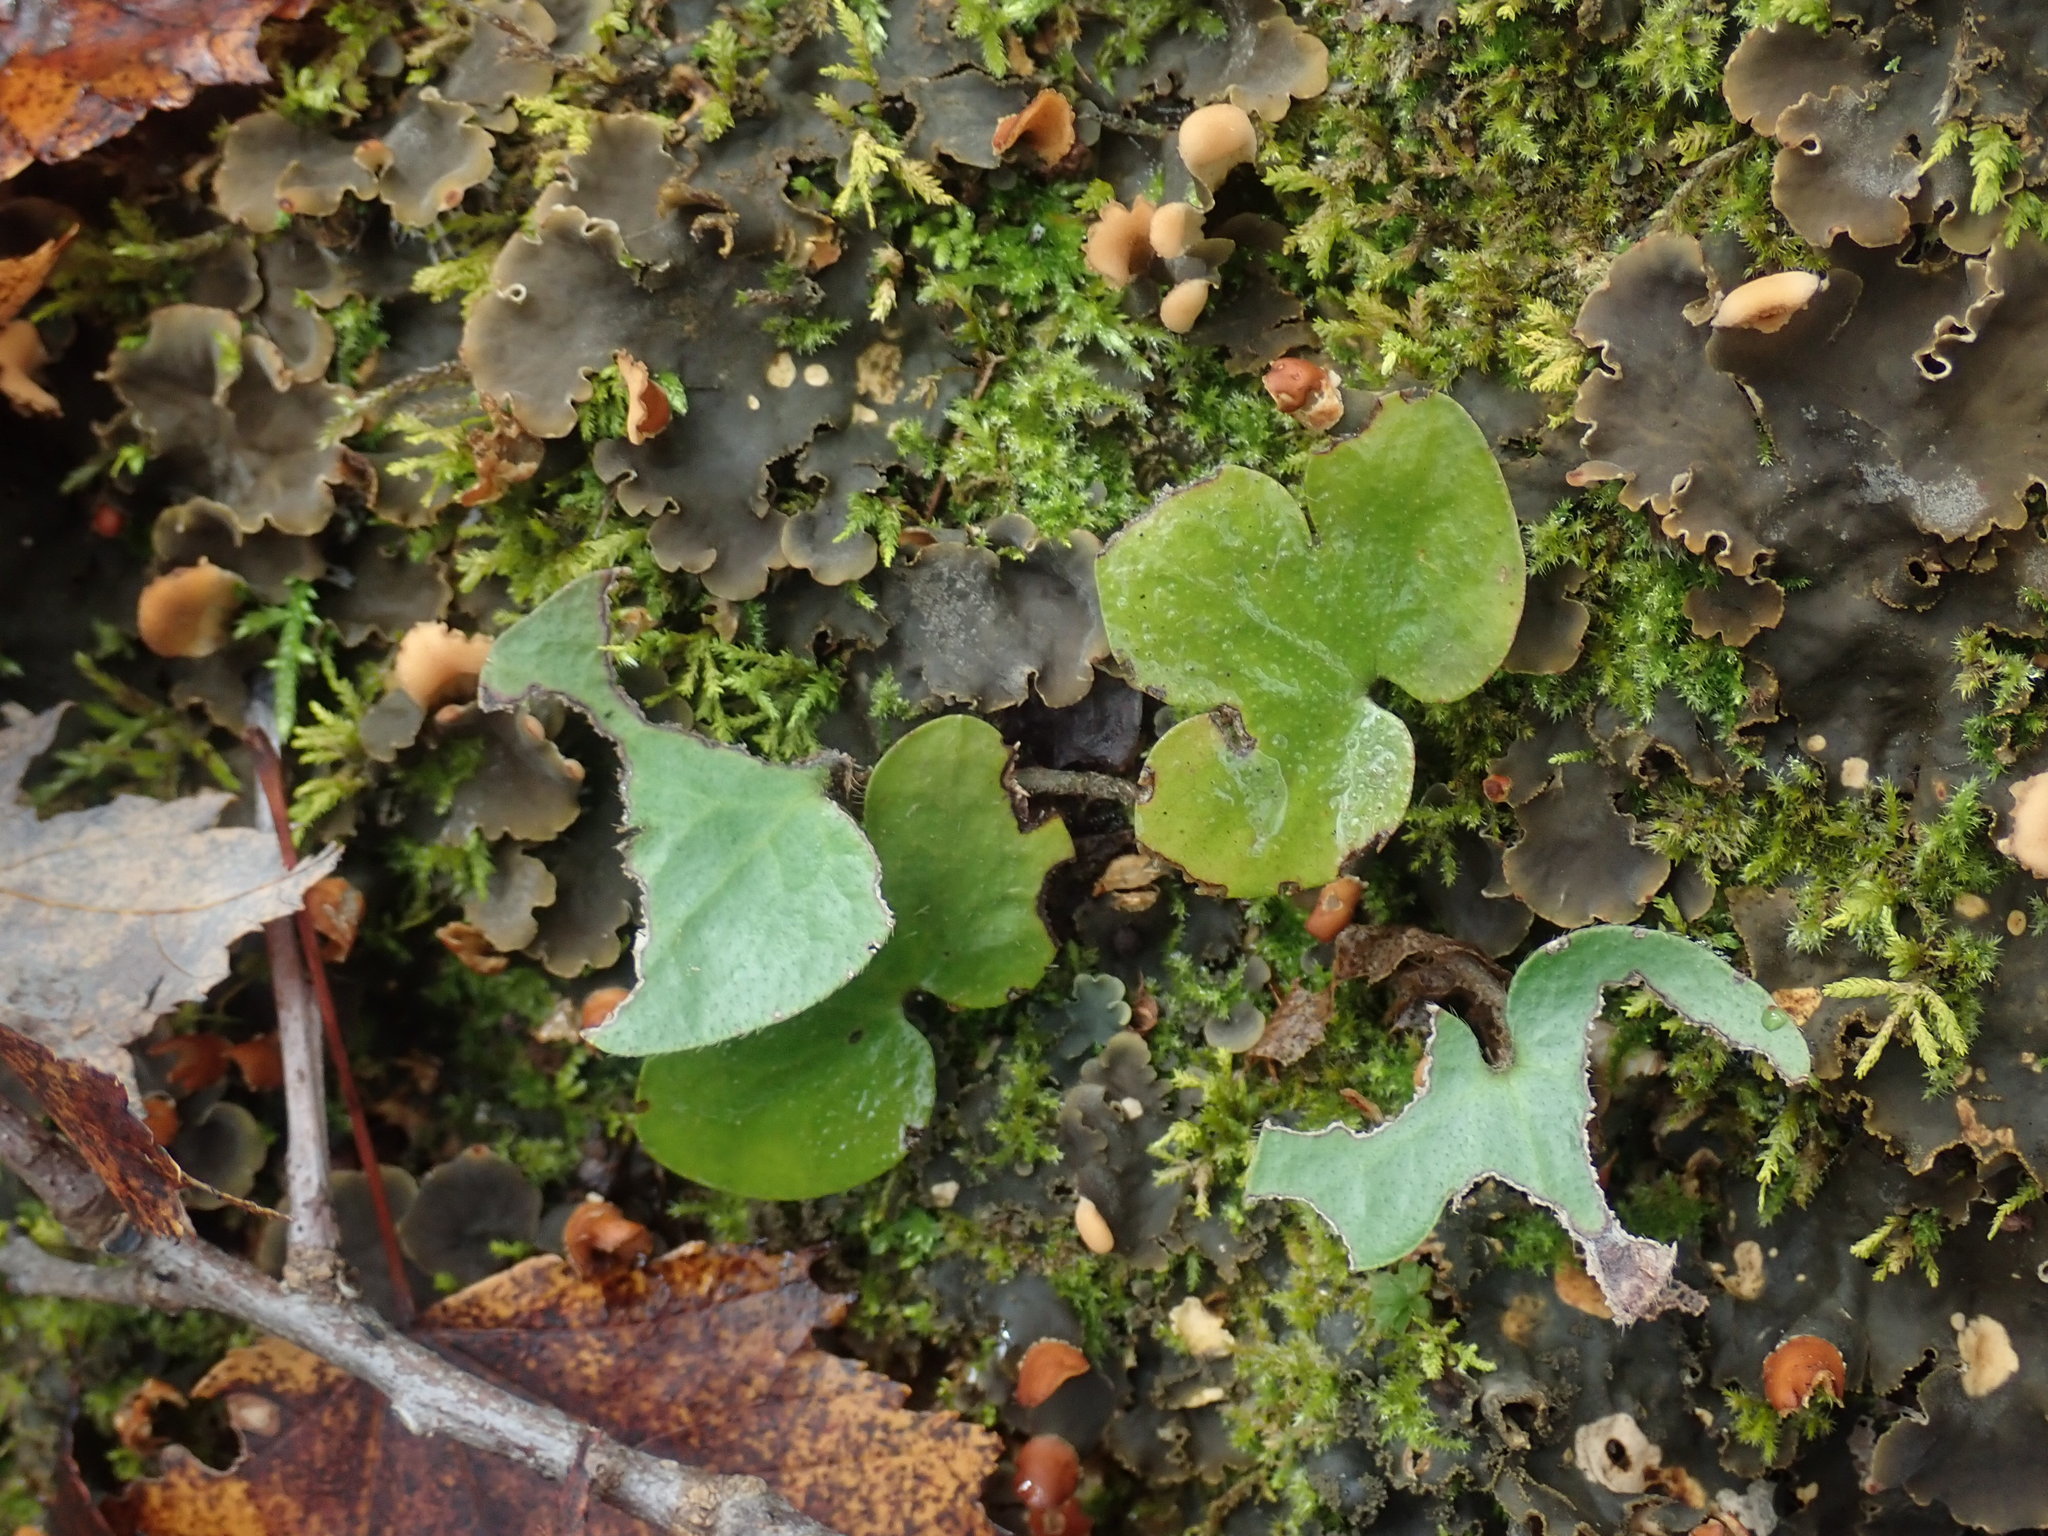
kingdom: Plantae
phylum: Tracheophyta
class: Magnoliopsida
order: Ranunculales
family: Ranunculaceae
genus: Hepatica
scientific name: Hepatica americana
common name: American hepatica
